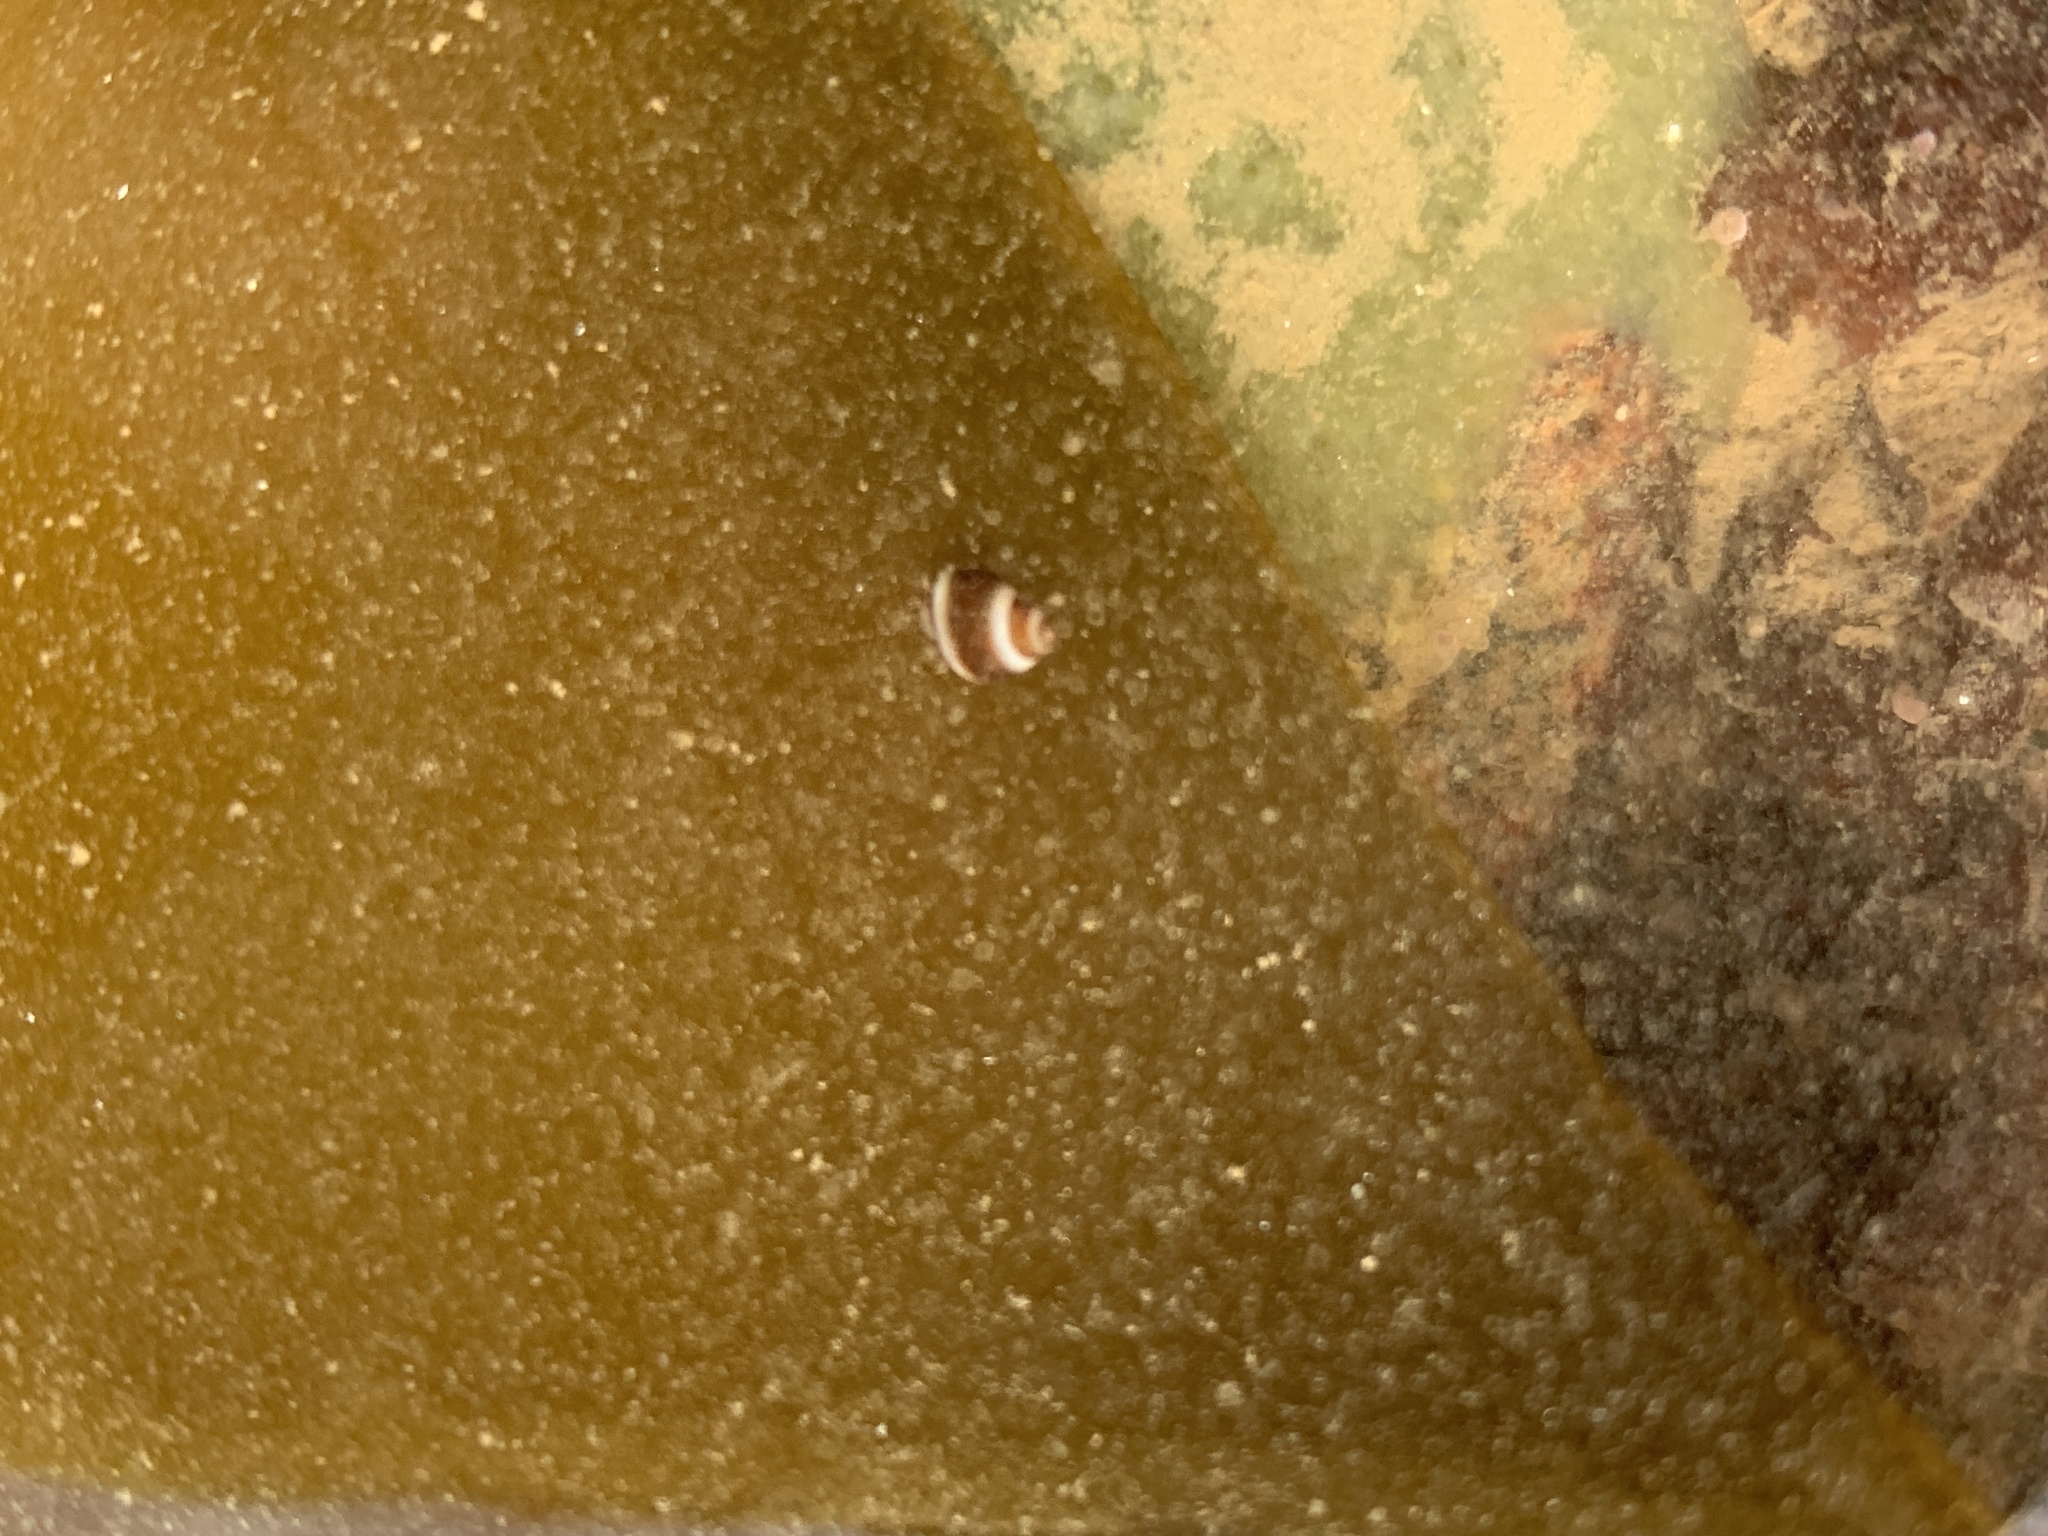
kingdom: Animalia
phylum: Mollusca
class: Gastropoda
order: Littorinimorpha
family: Littorinidae
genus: Lacuna
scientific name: Lacuna vincta
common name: Banded chink shell
